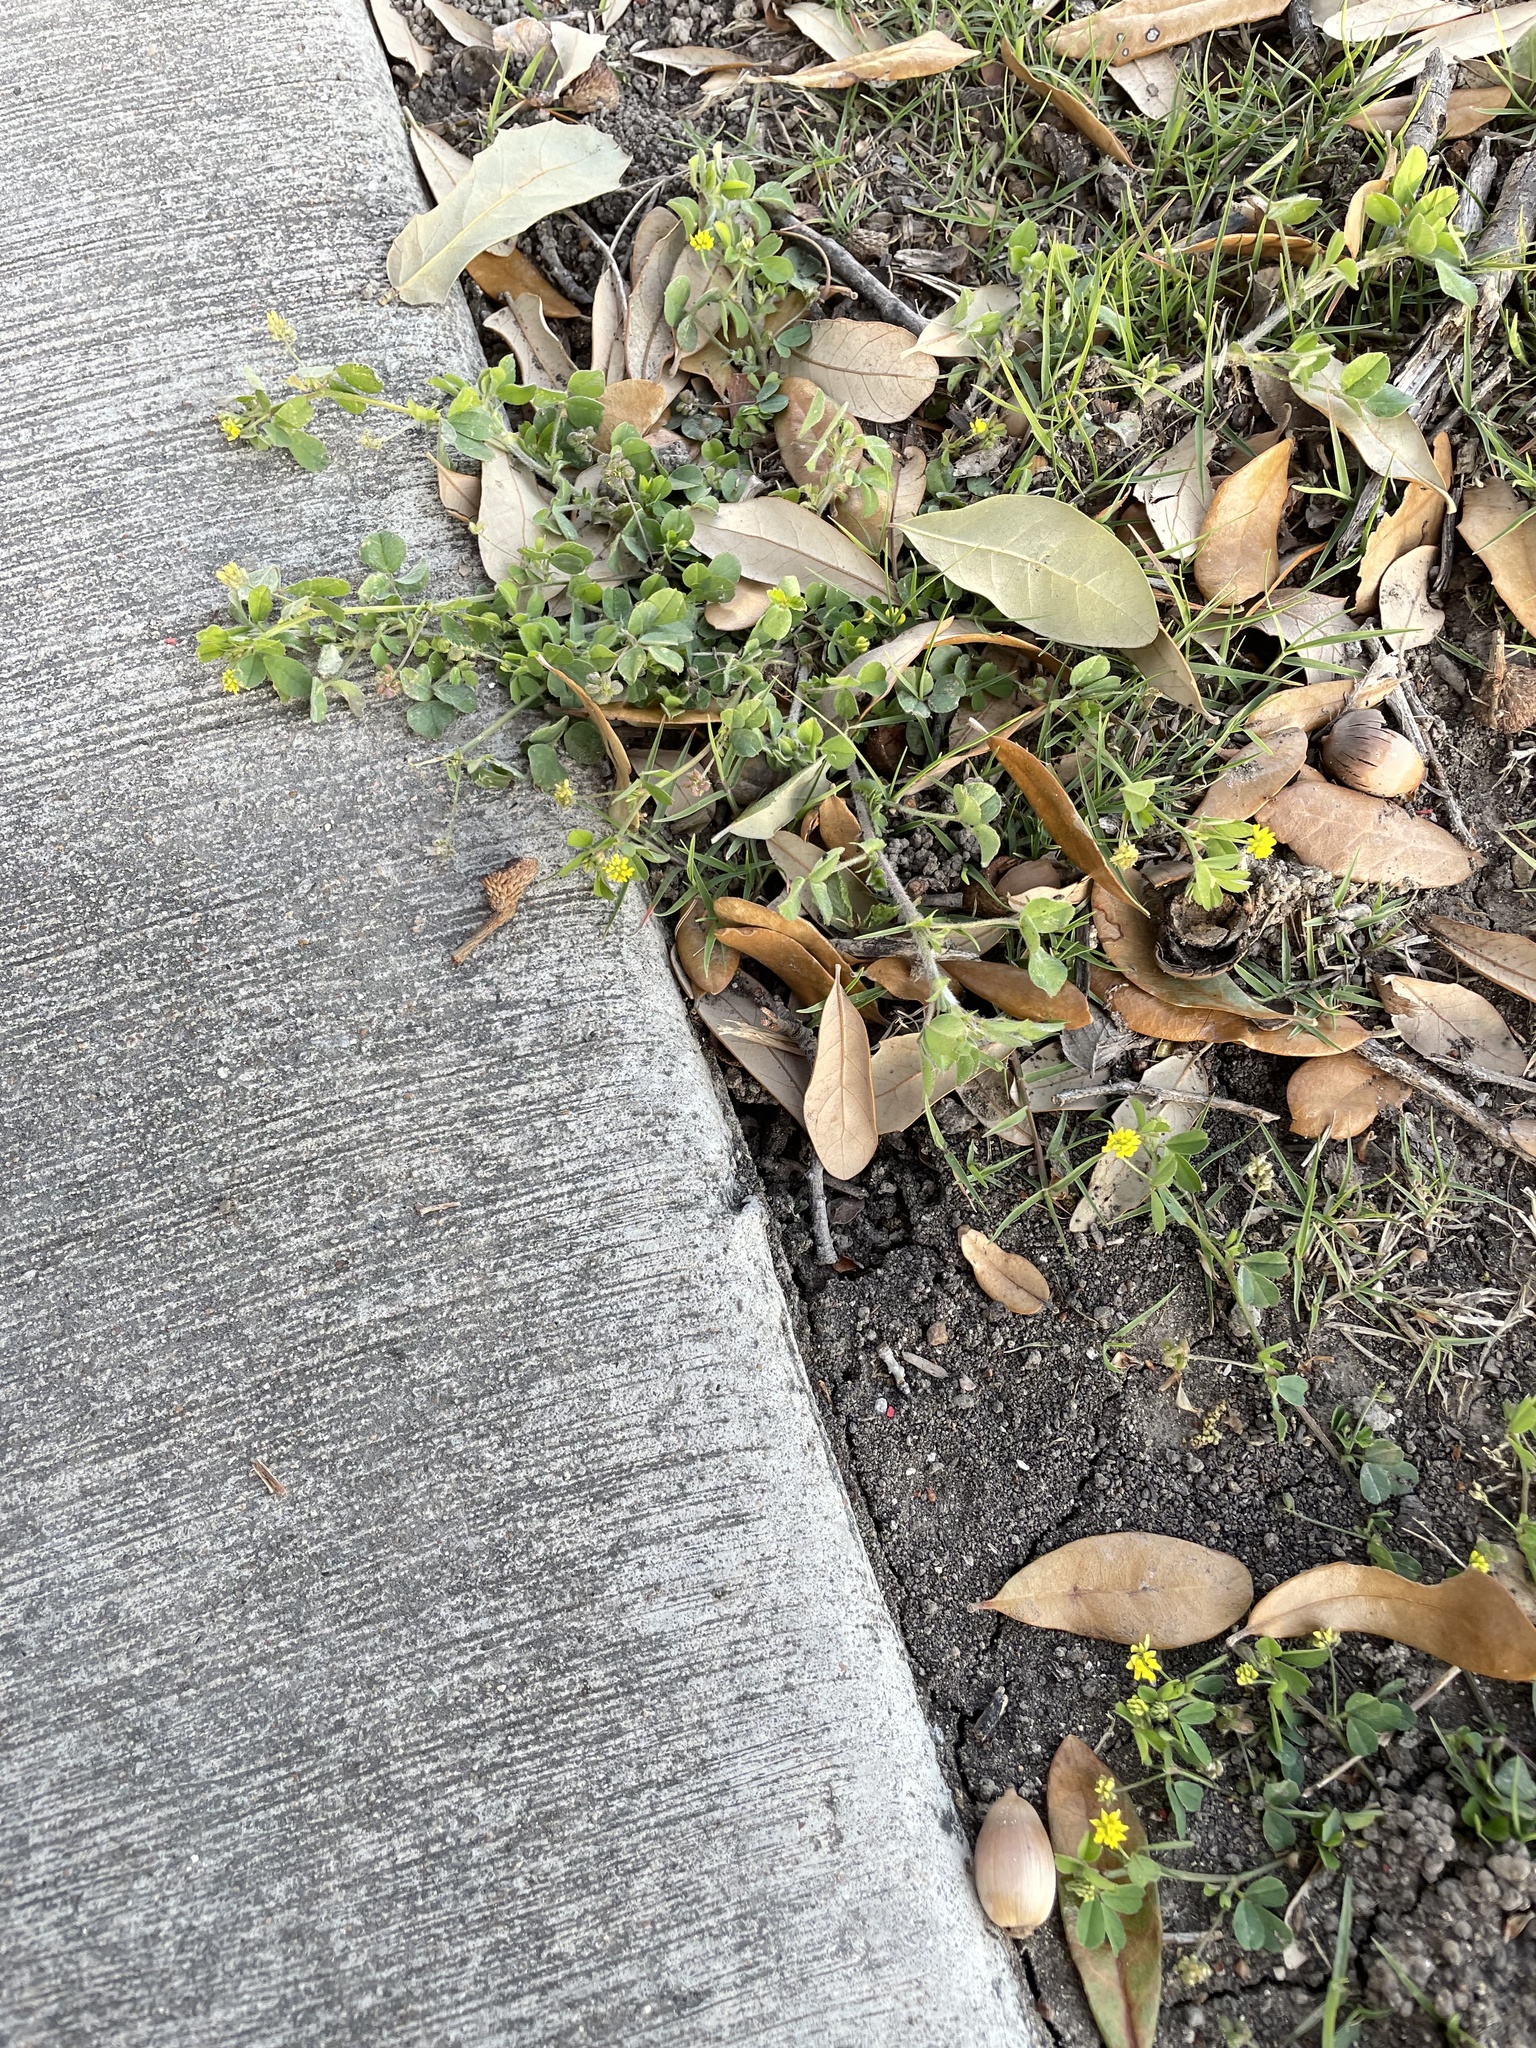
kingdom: Plantae
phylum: Tracheophyta
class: Magnoliopsida
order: Fabales
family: Fabaceae
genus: Medicago
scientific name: Medicago lupulina
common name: Black medick
